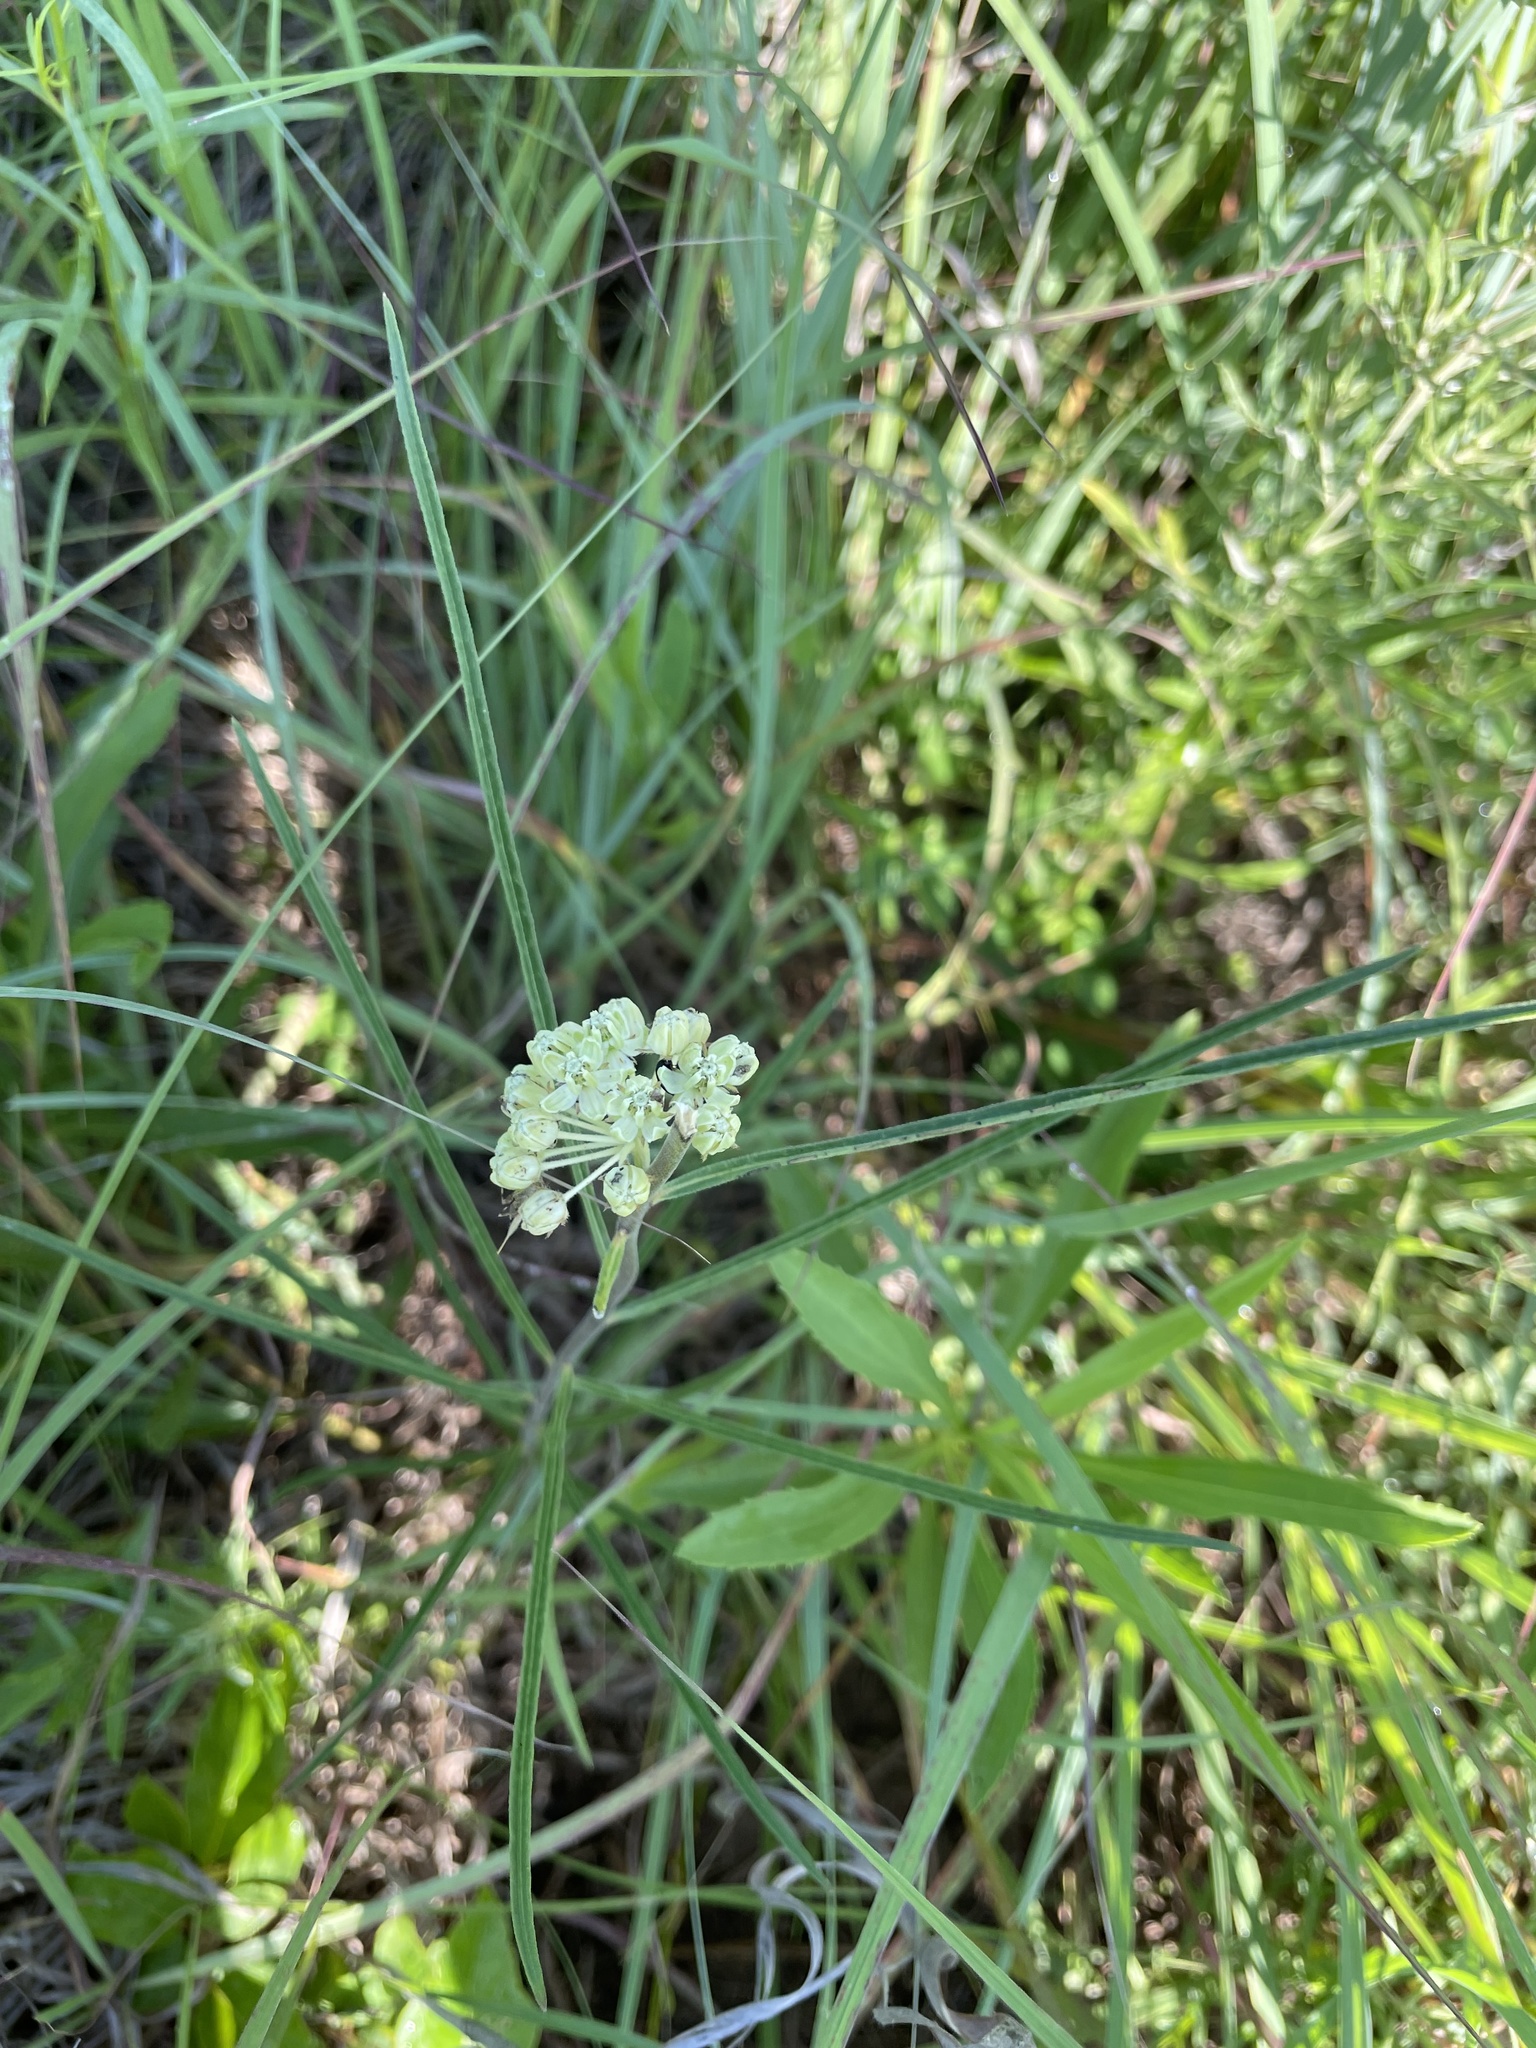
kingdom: Plantae
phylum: Tracheophyta
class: Magnoliopsida
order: Gentianales
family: Apocynaceae
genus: Asclepias
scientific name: Asclepias stenophylla
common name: Narrow-leaf milkweed
